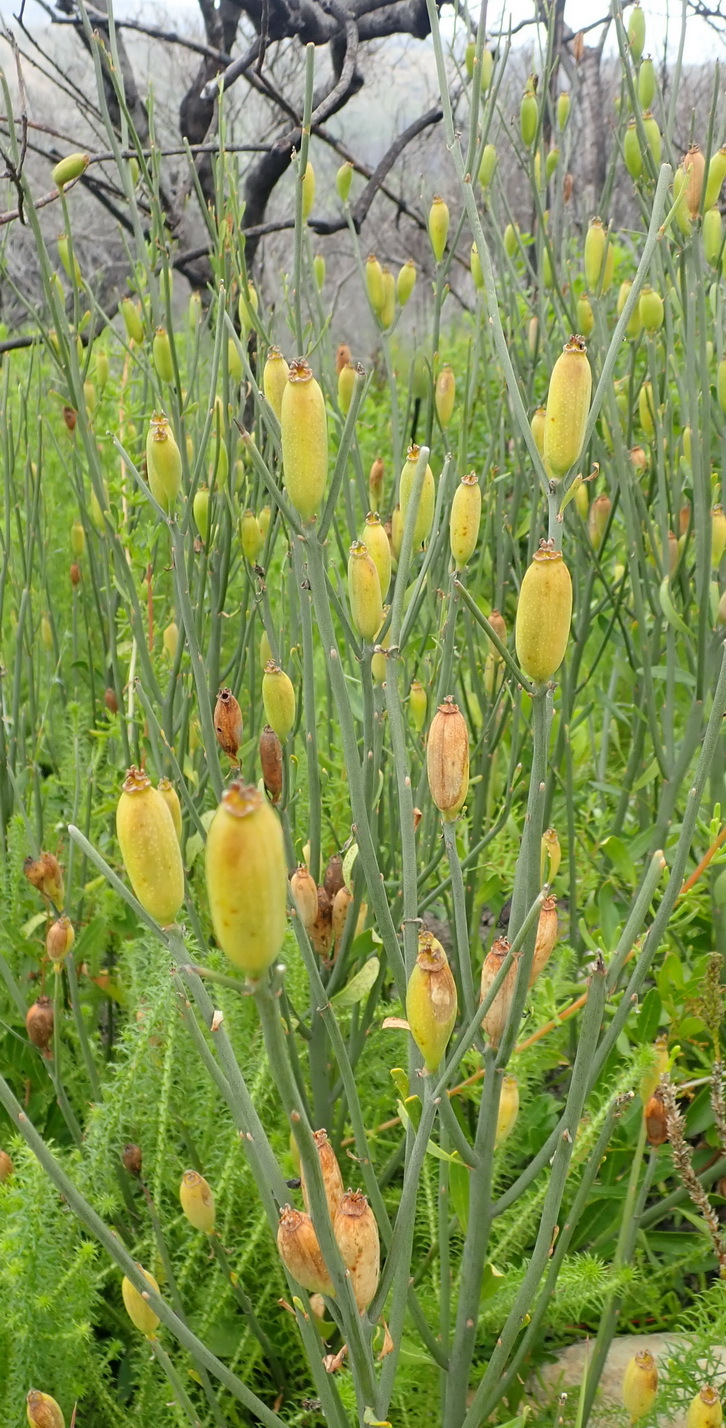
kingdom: Plantae
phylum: Tracheophyta
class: Magnoliopsida
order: Solanales
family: Montiniaceae
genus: Montinia
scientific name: Montinia caryophyllacea
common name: Wild clove-bush
